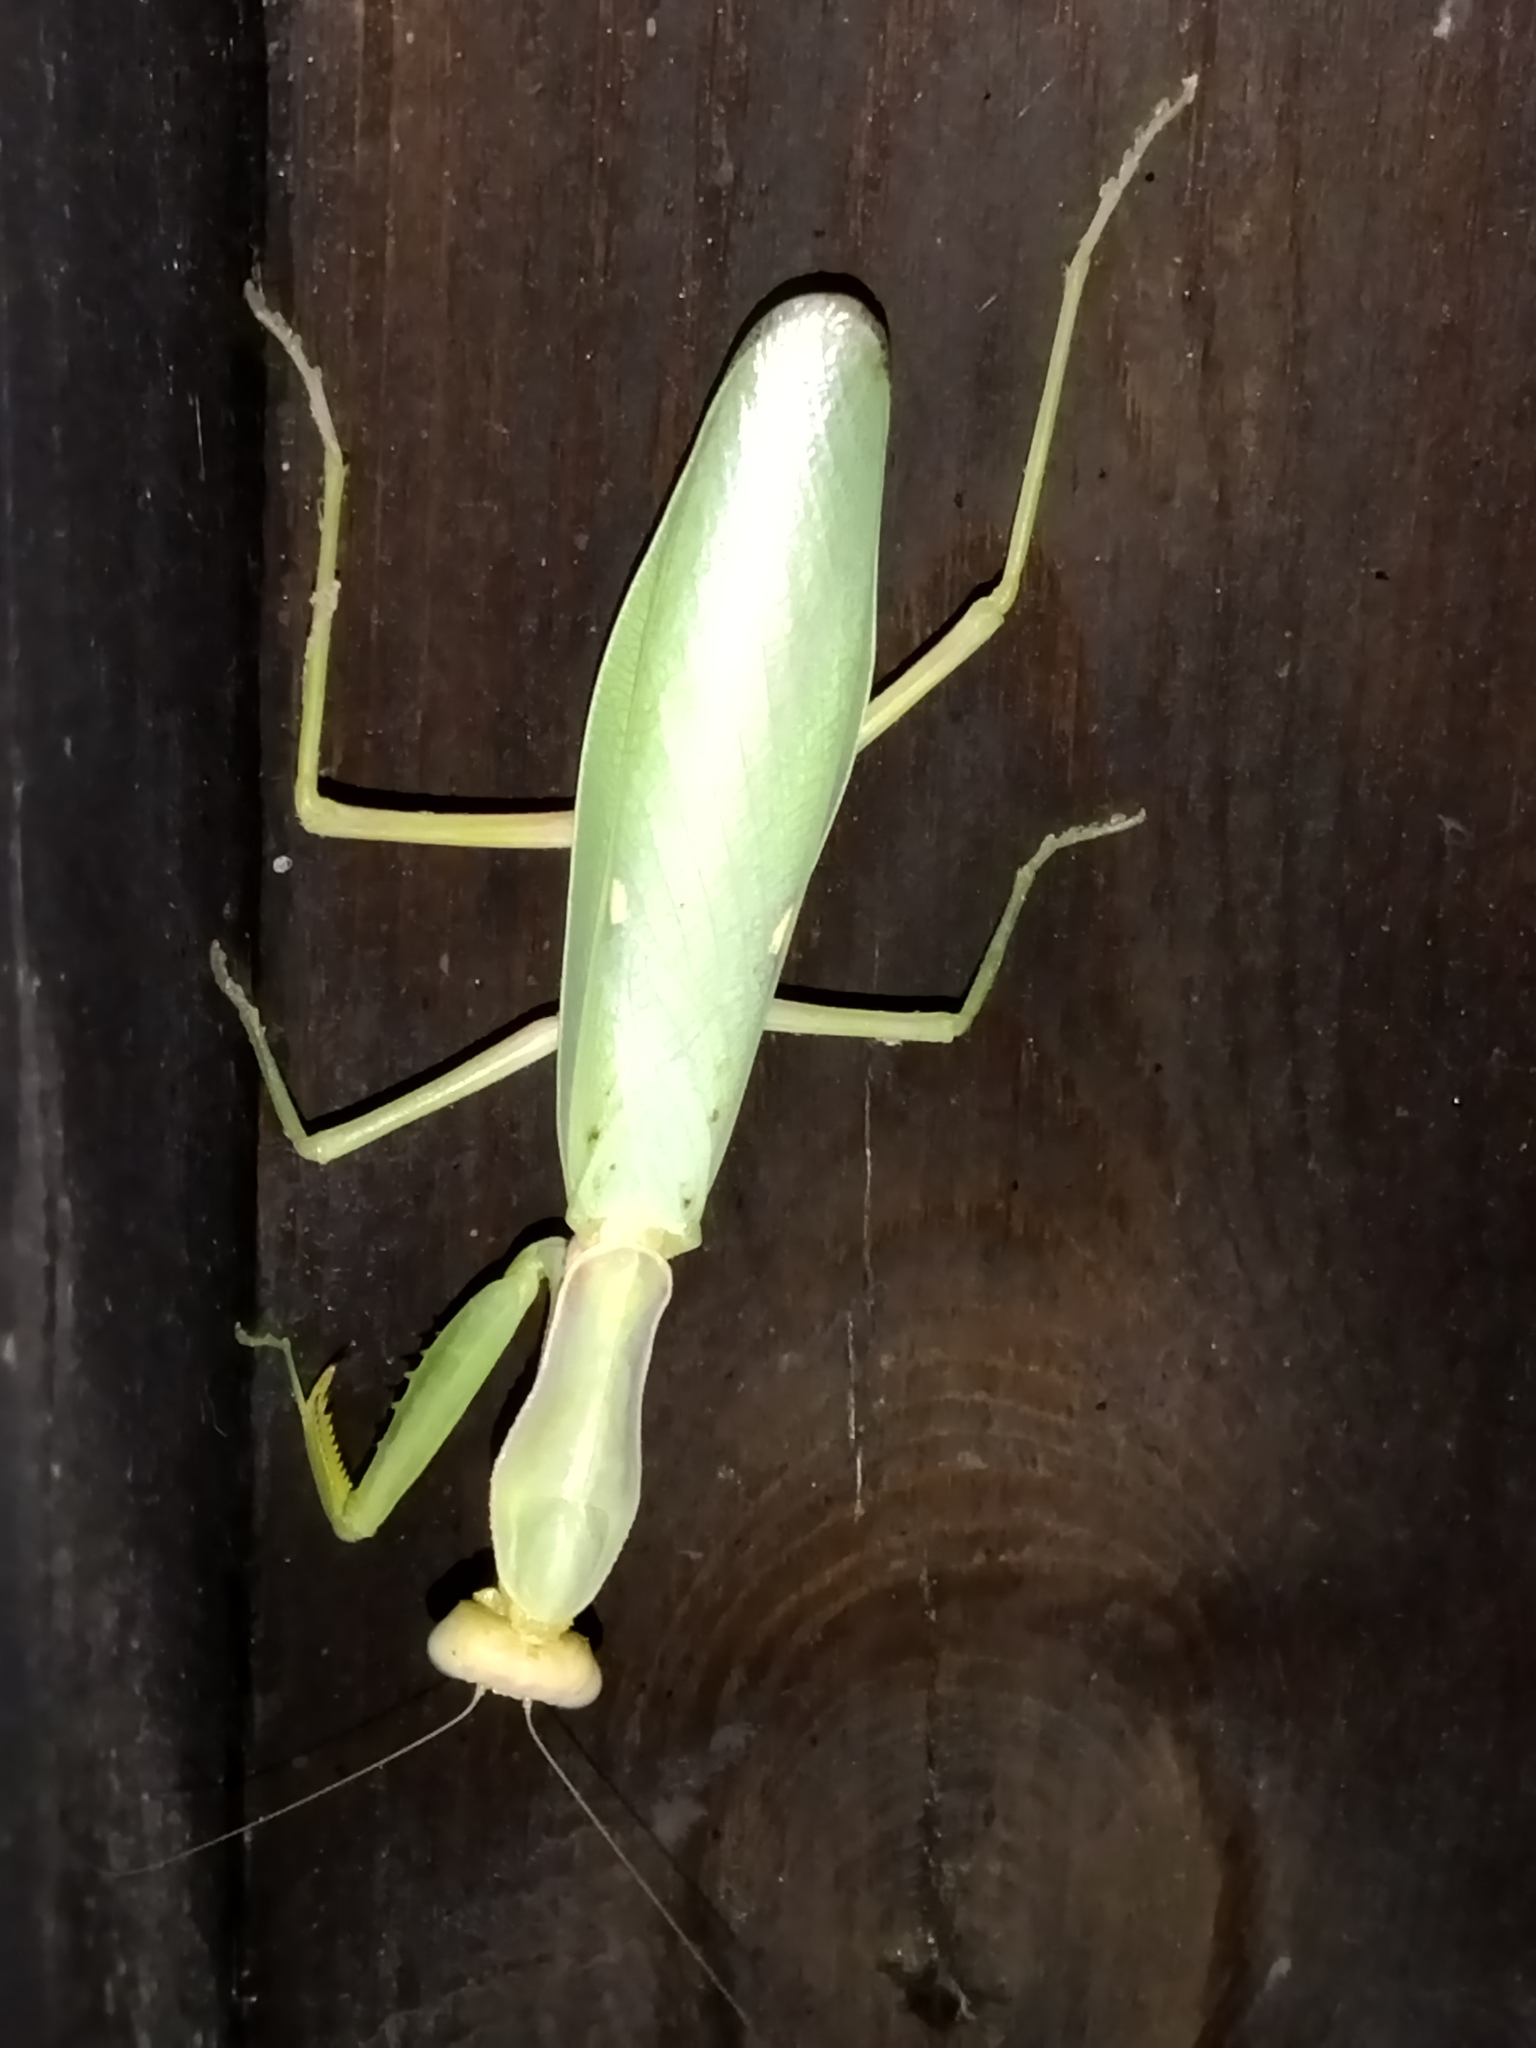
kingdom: Animalia
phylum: Arthropoda
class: Insecta
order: Mantodea
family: Mantidae
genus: Hierodula
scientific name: Hierodula transcaucasica
